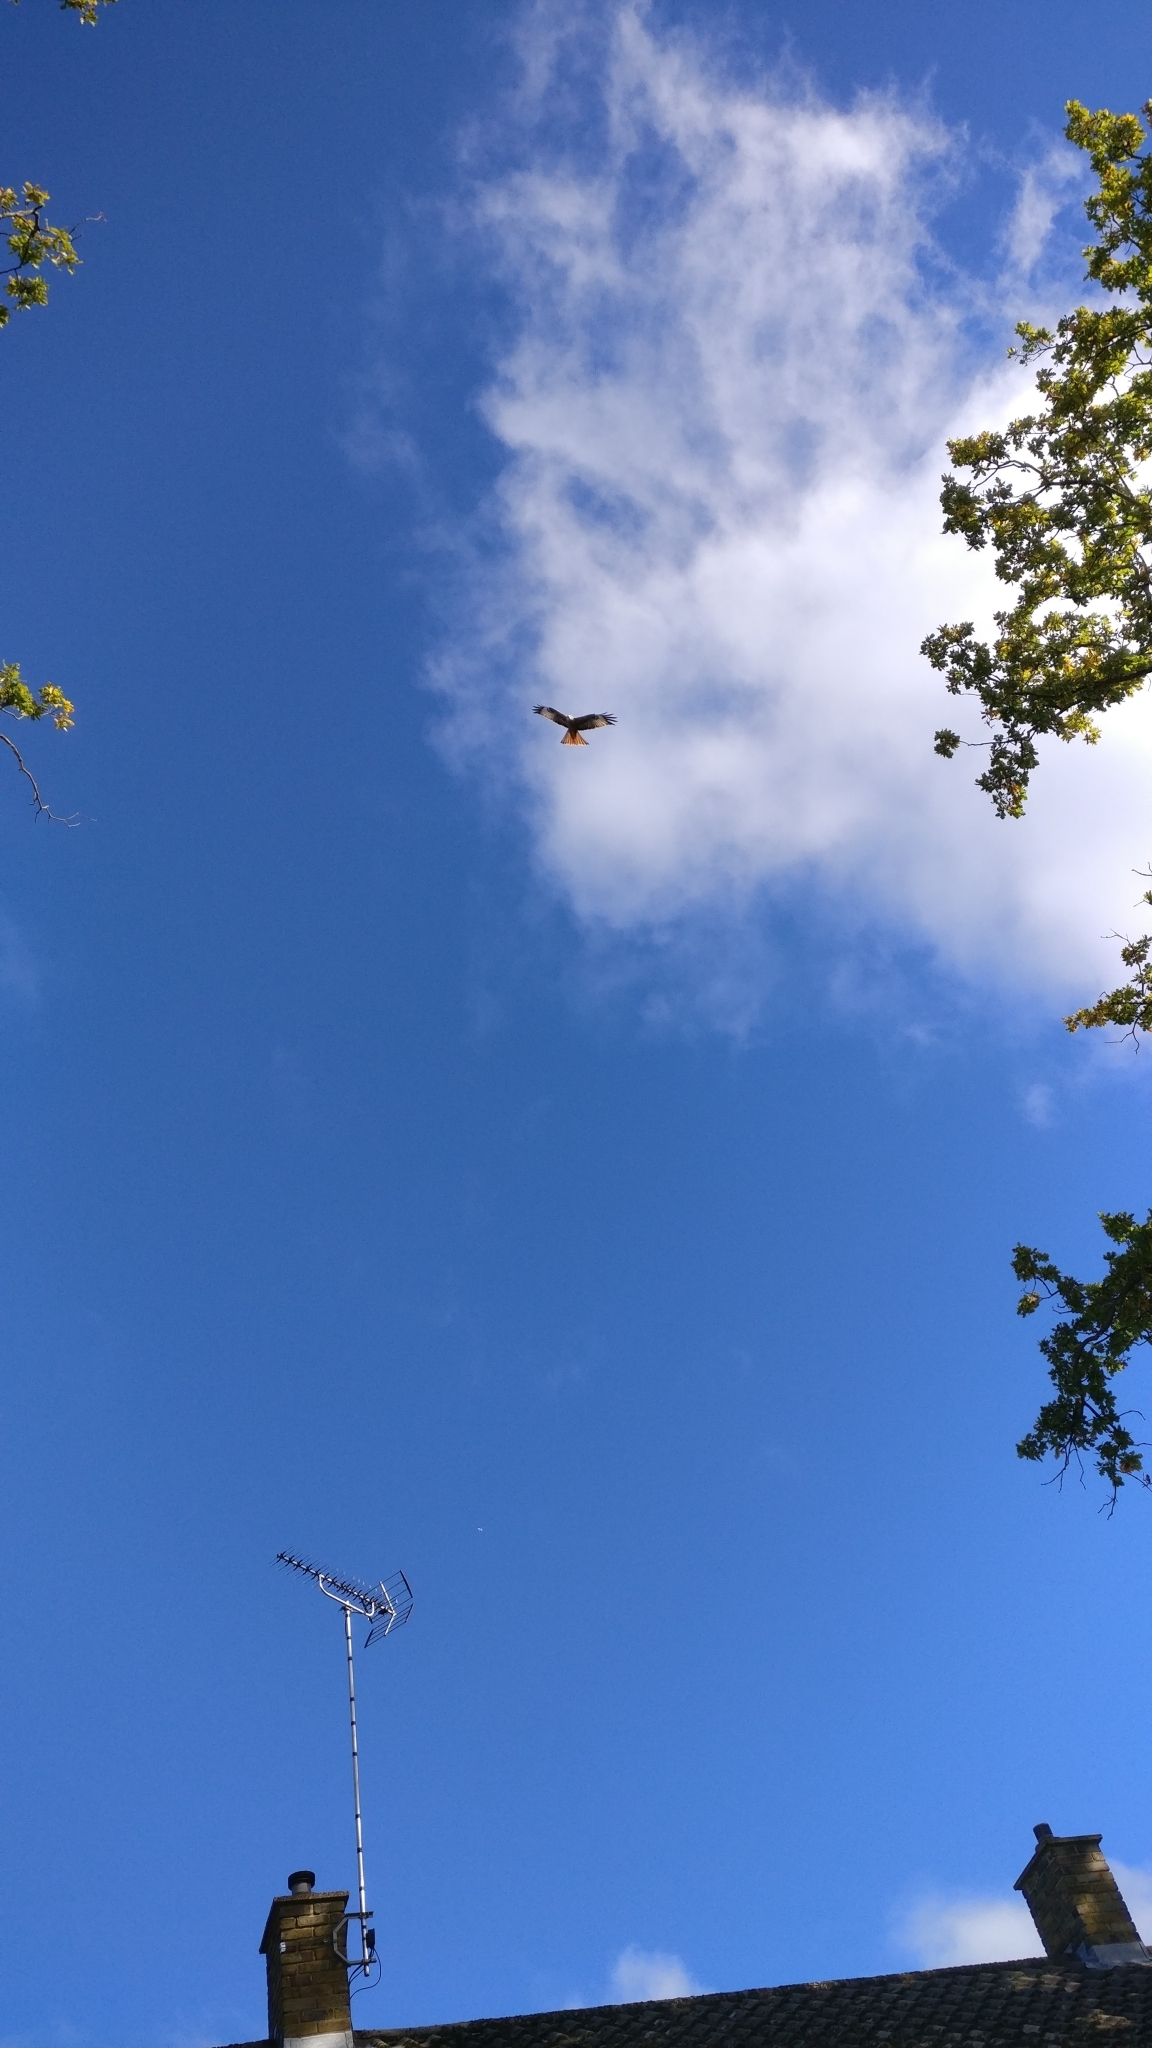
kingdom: Animalia
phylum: Chordata
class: Aves
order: Accipitriformes
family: Accipitridae
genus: Milvus
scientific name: Milvus milvus
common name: Red kite
